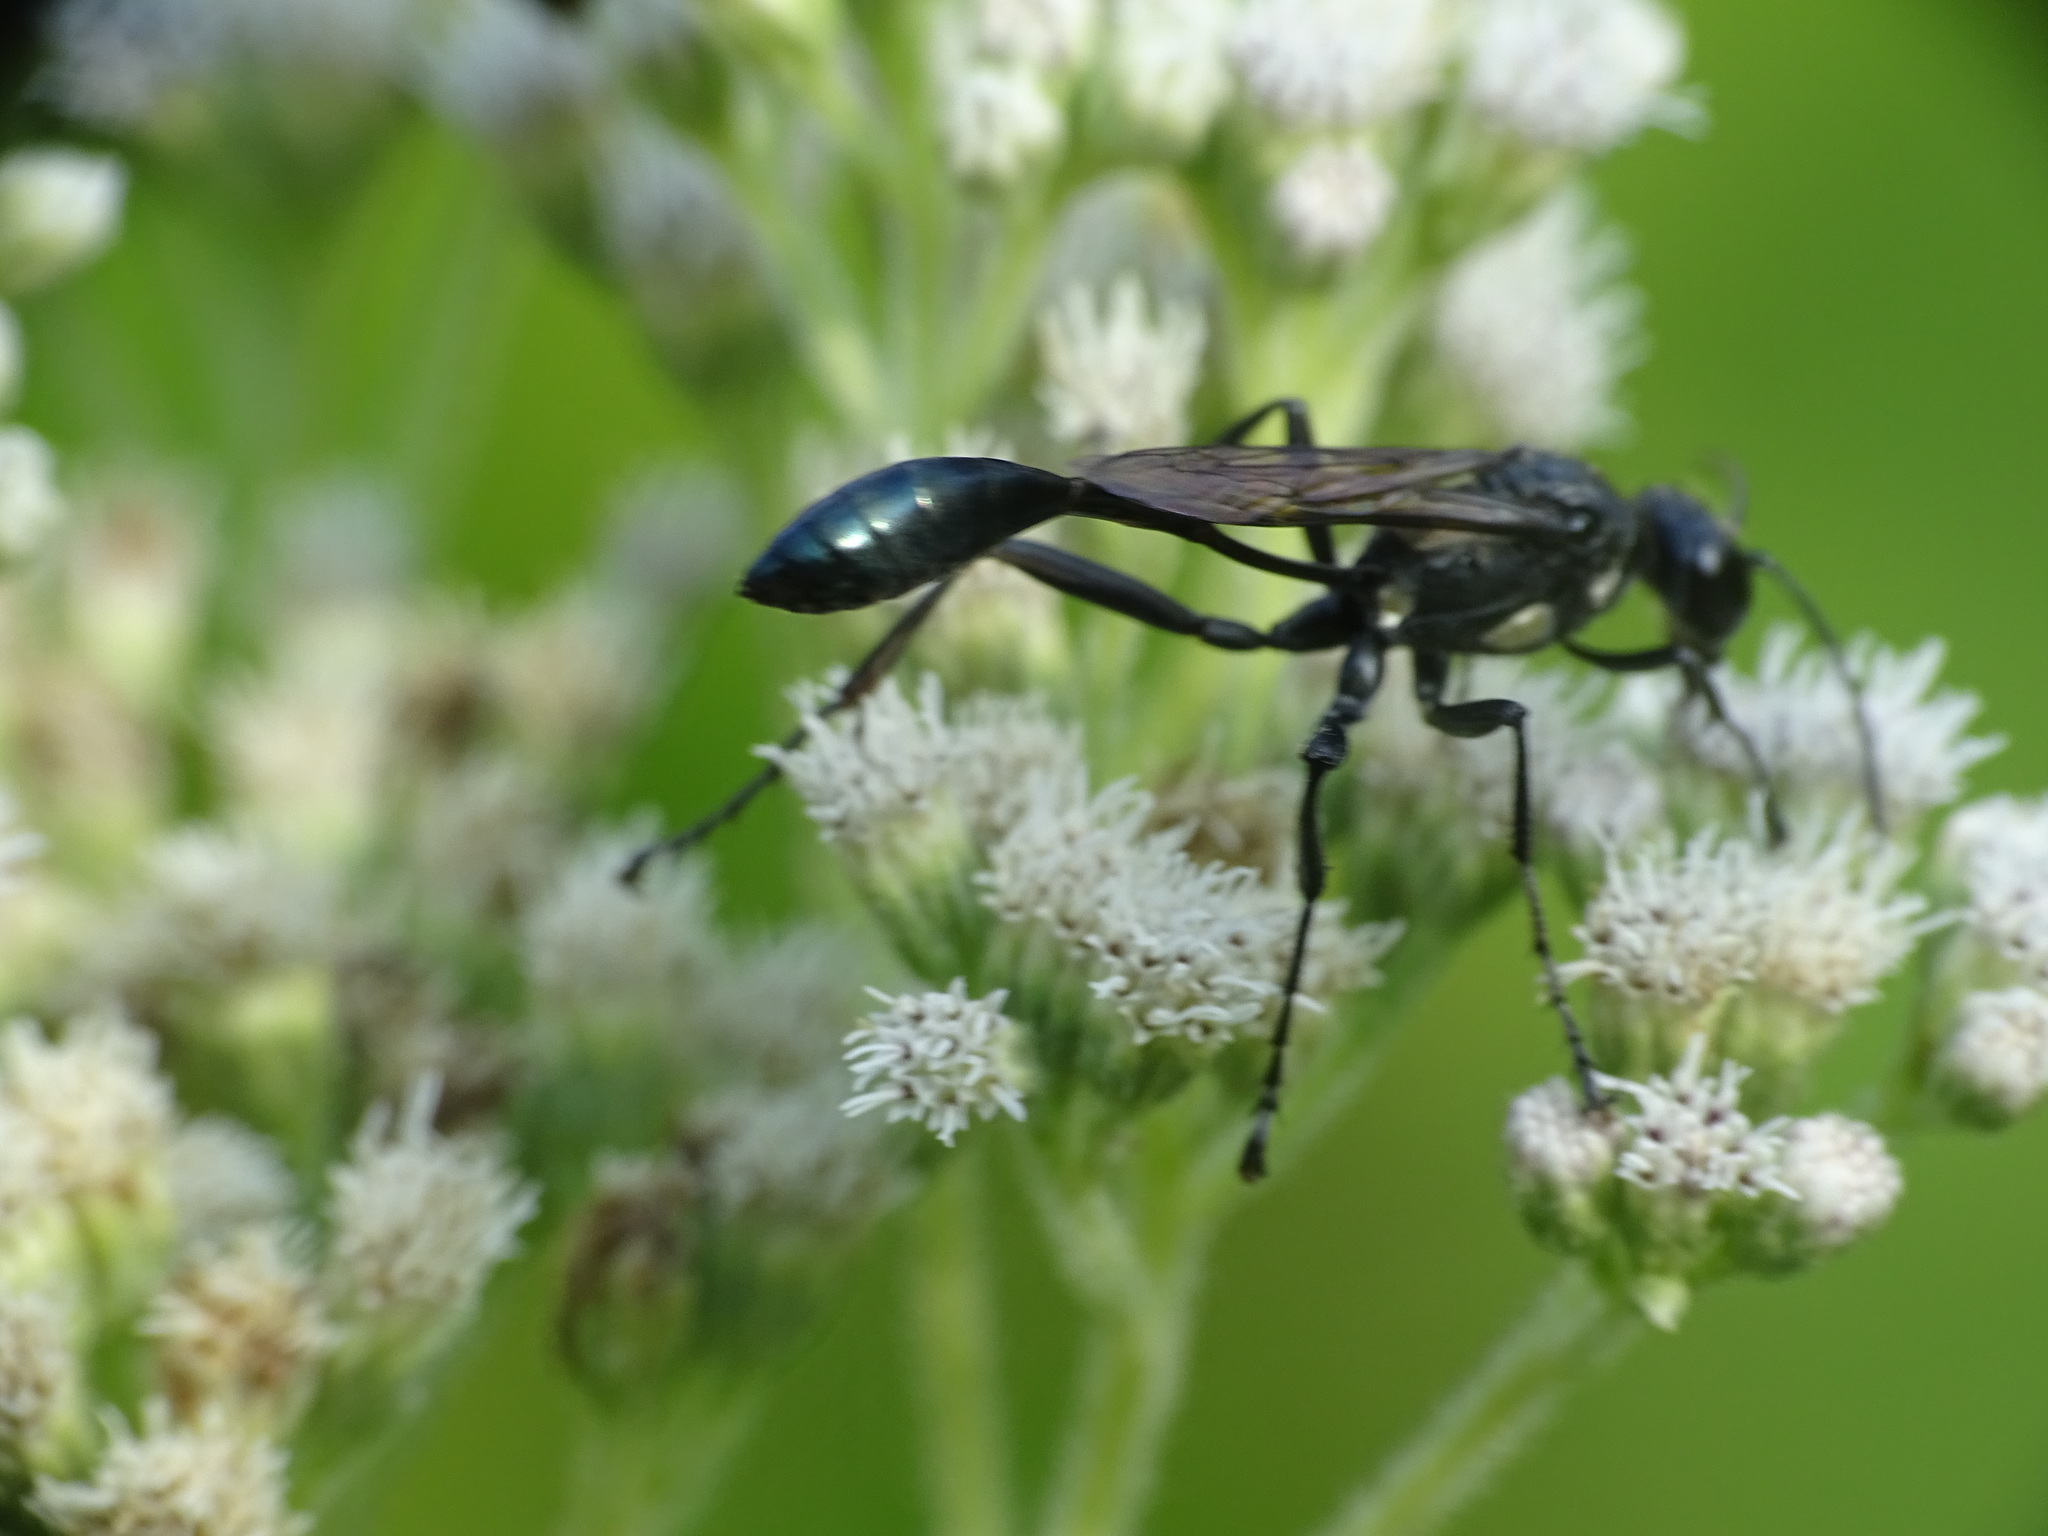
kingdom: Animalia
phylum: Arthropoda
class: Insecta
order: Hymenoptera
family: Sphecidae
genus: Eremnophila
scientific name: Eremnophila aureonotata
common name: Gold-marked thread-waisted wasp
